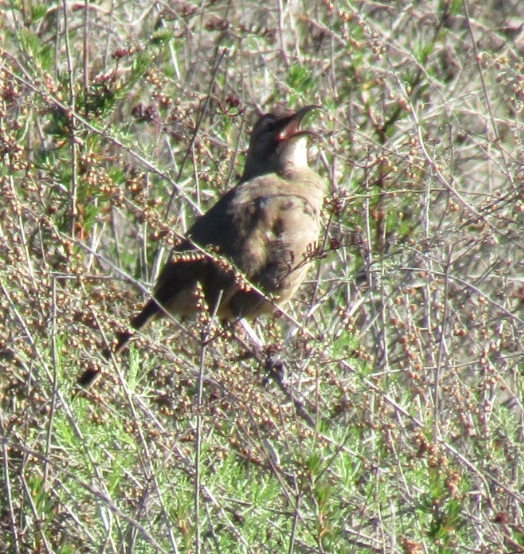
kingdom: Animalia
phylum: Chordata
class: Aves
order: Passeriformes
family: Mimidae
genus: Toxostoma
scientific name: Toxostoma redivivum
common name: California thrasher
